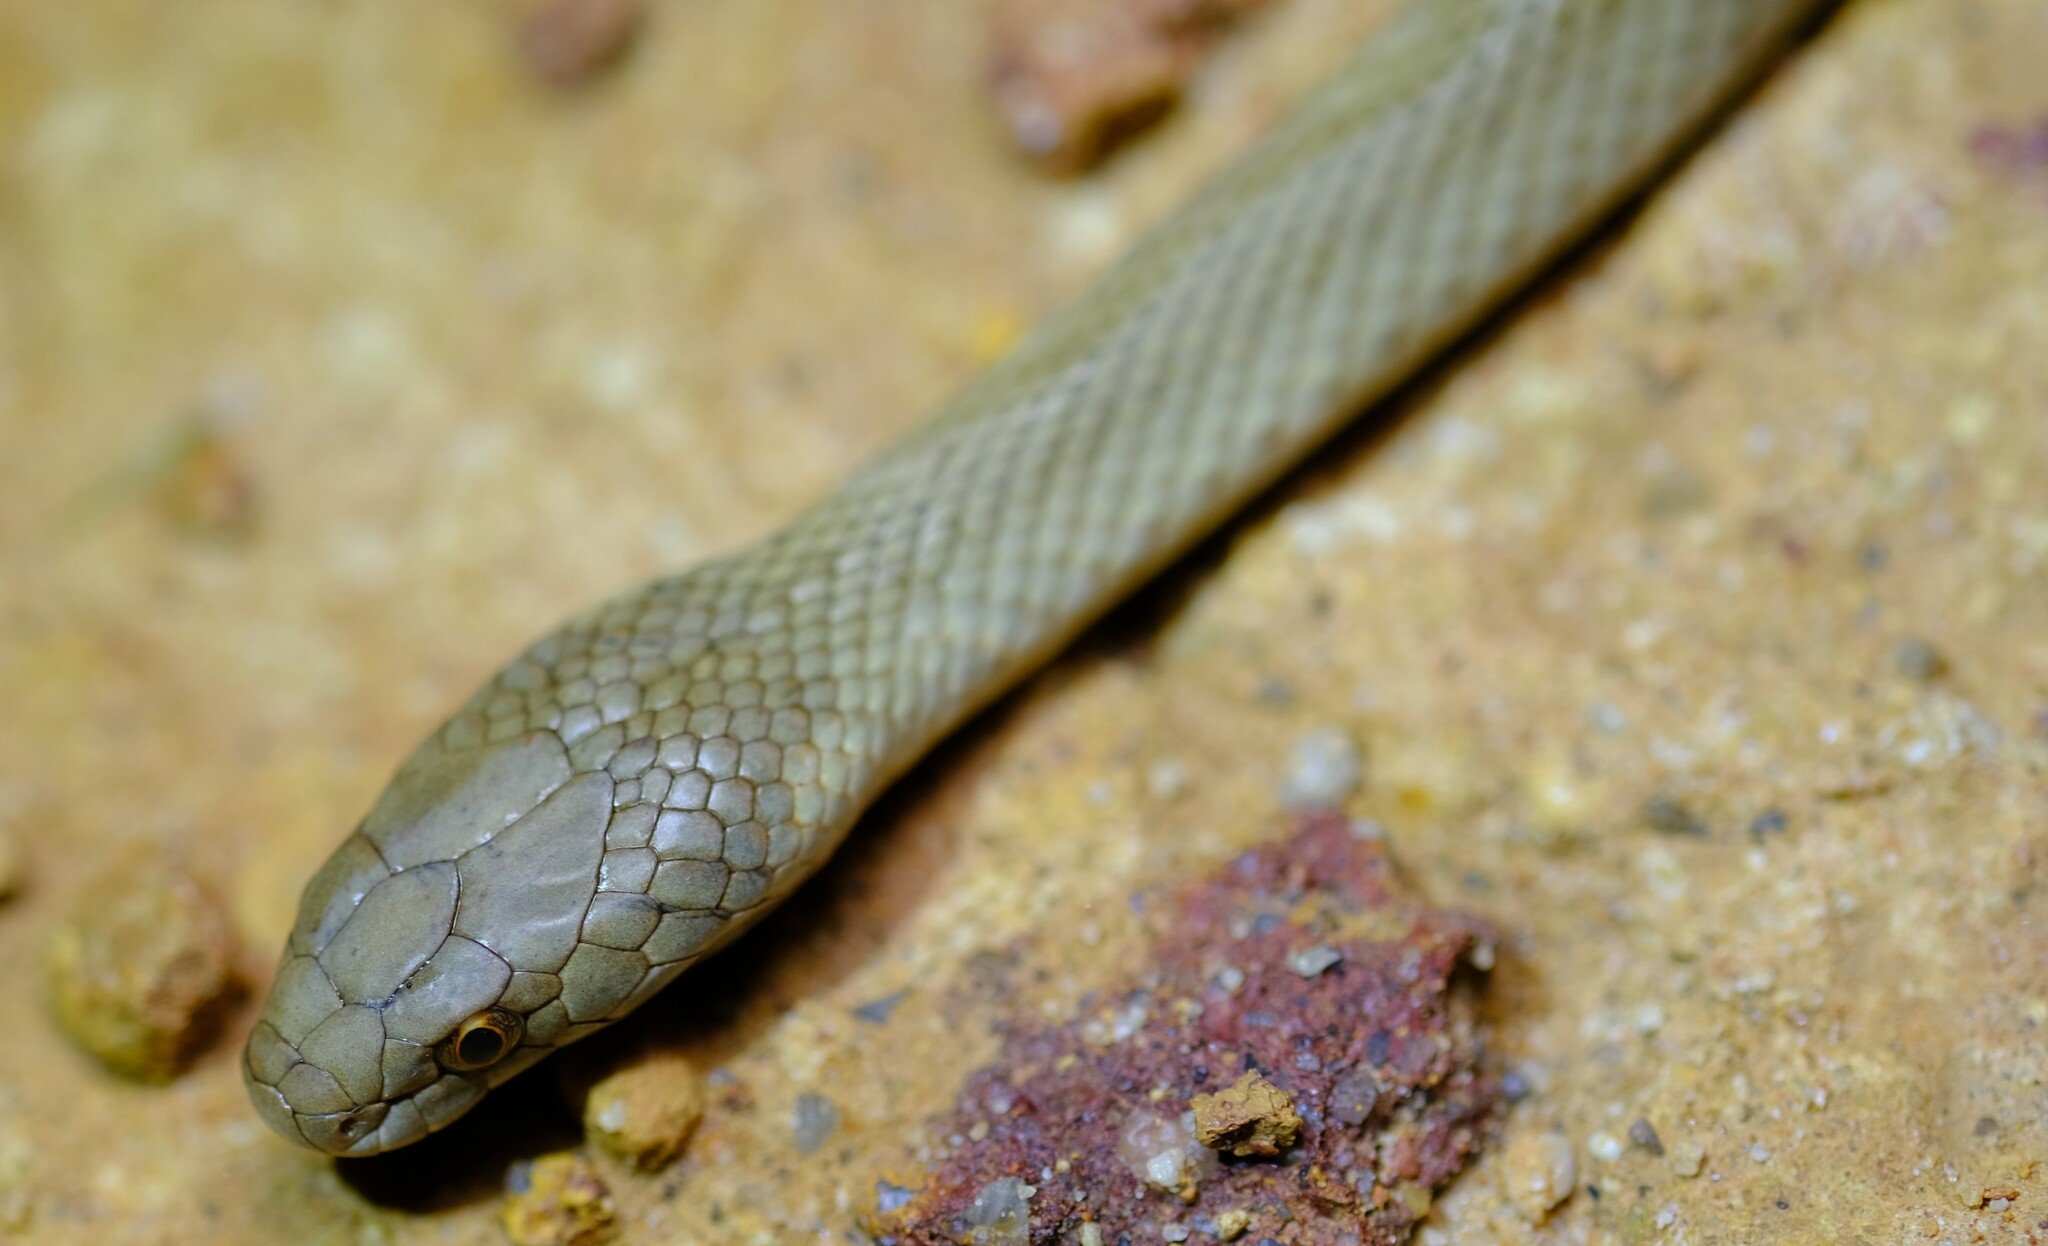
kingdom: Animalia
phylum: Chordata
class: Squamata
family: Elapidae
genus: Echiopsis
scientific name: Echiopsis curta
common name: Bardick
